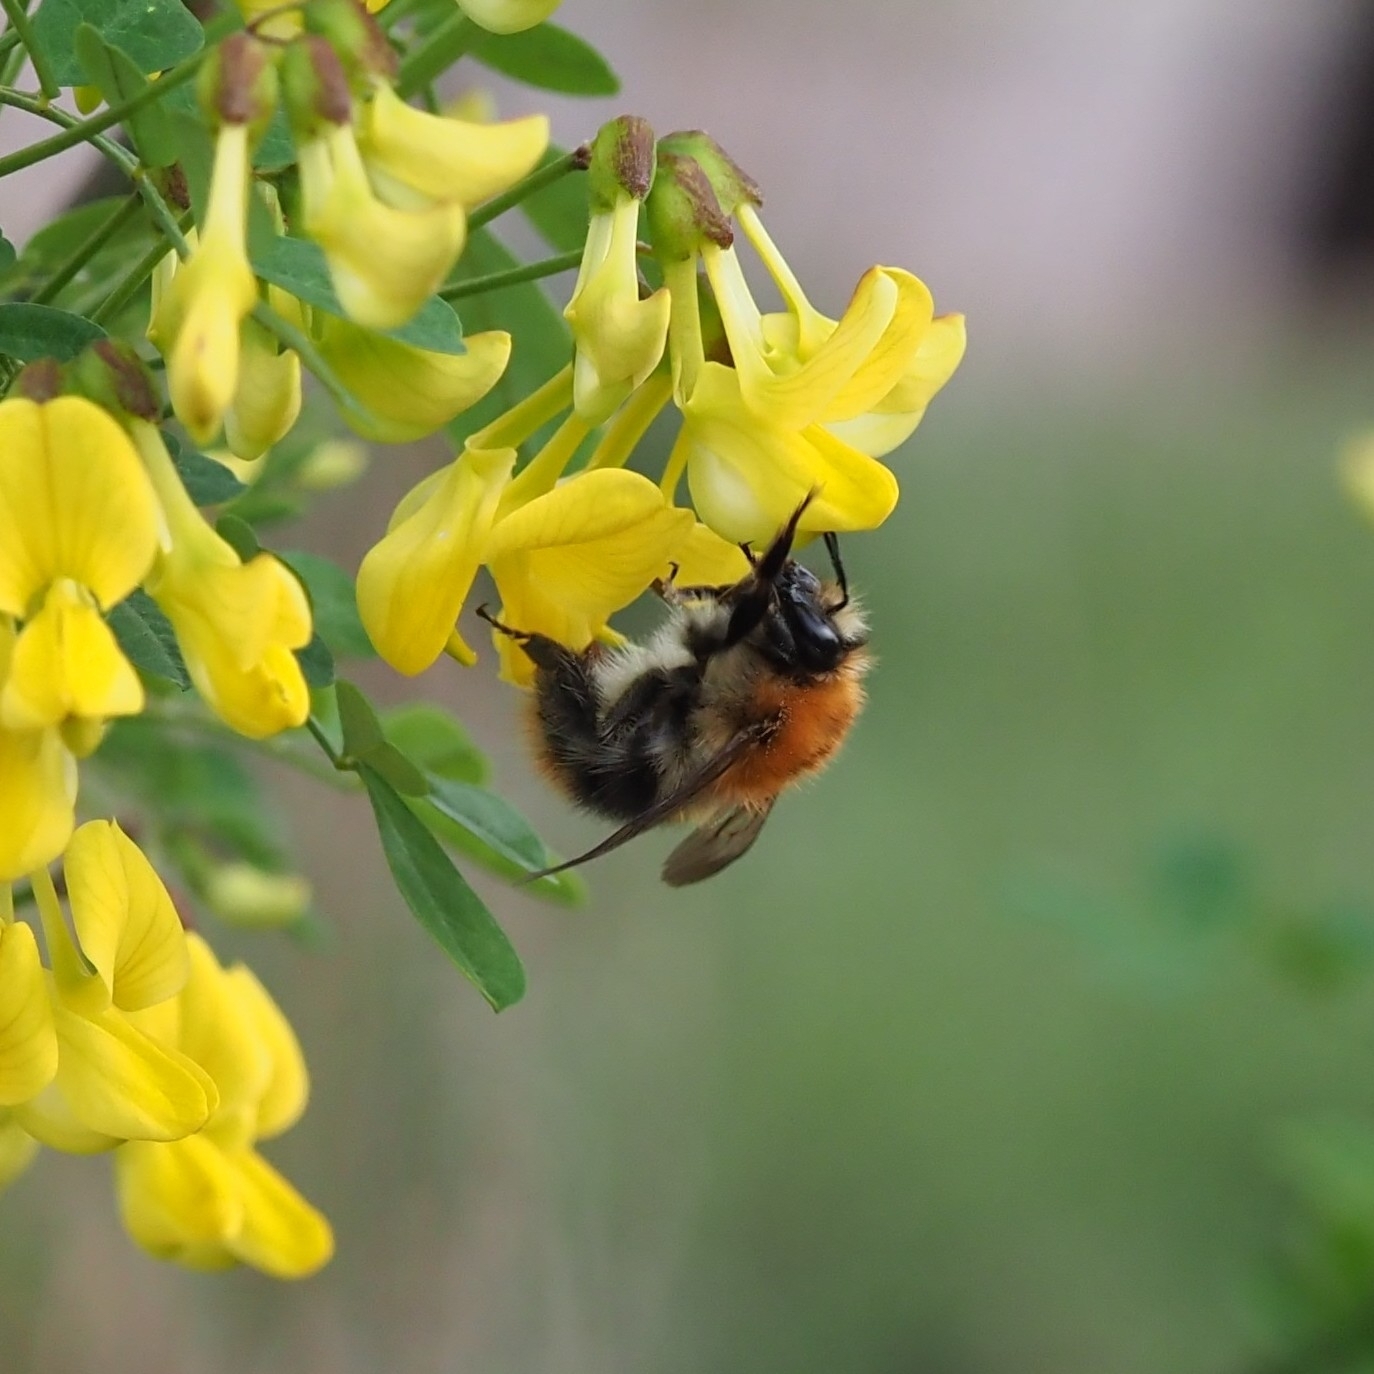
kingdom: Animalia
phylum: Arthropoda
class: Insecta
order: Hymenoptera
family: Apidae
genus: Bombus
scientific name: Bombus pascuorum
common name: Common carder bee
